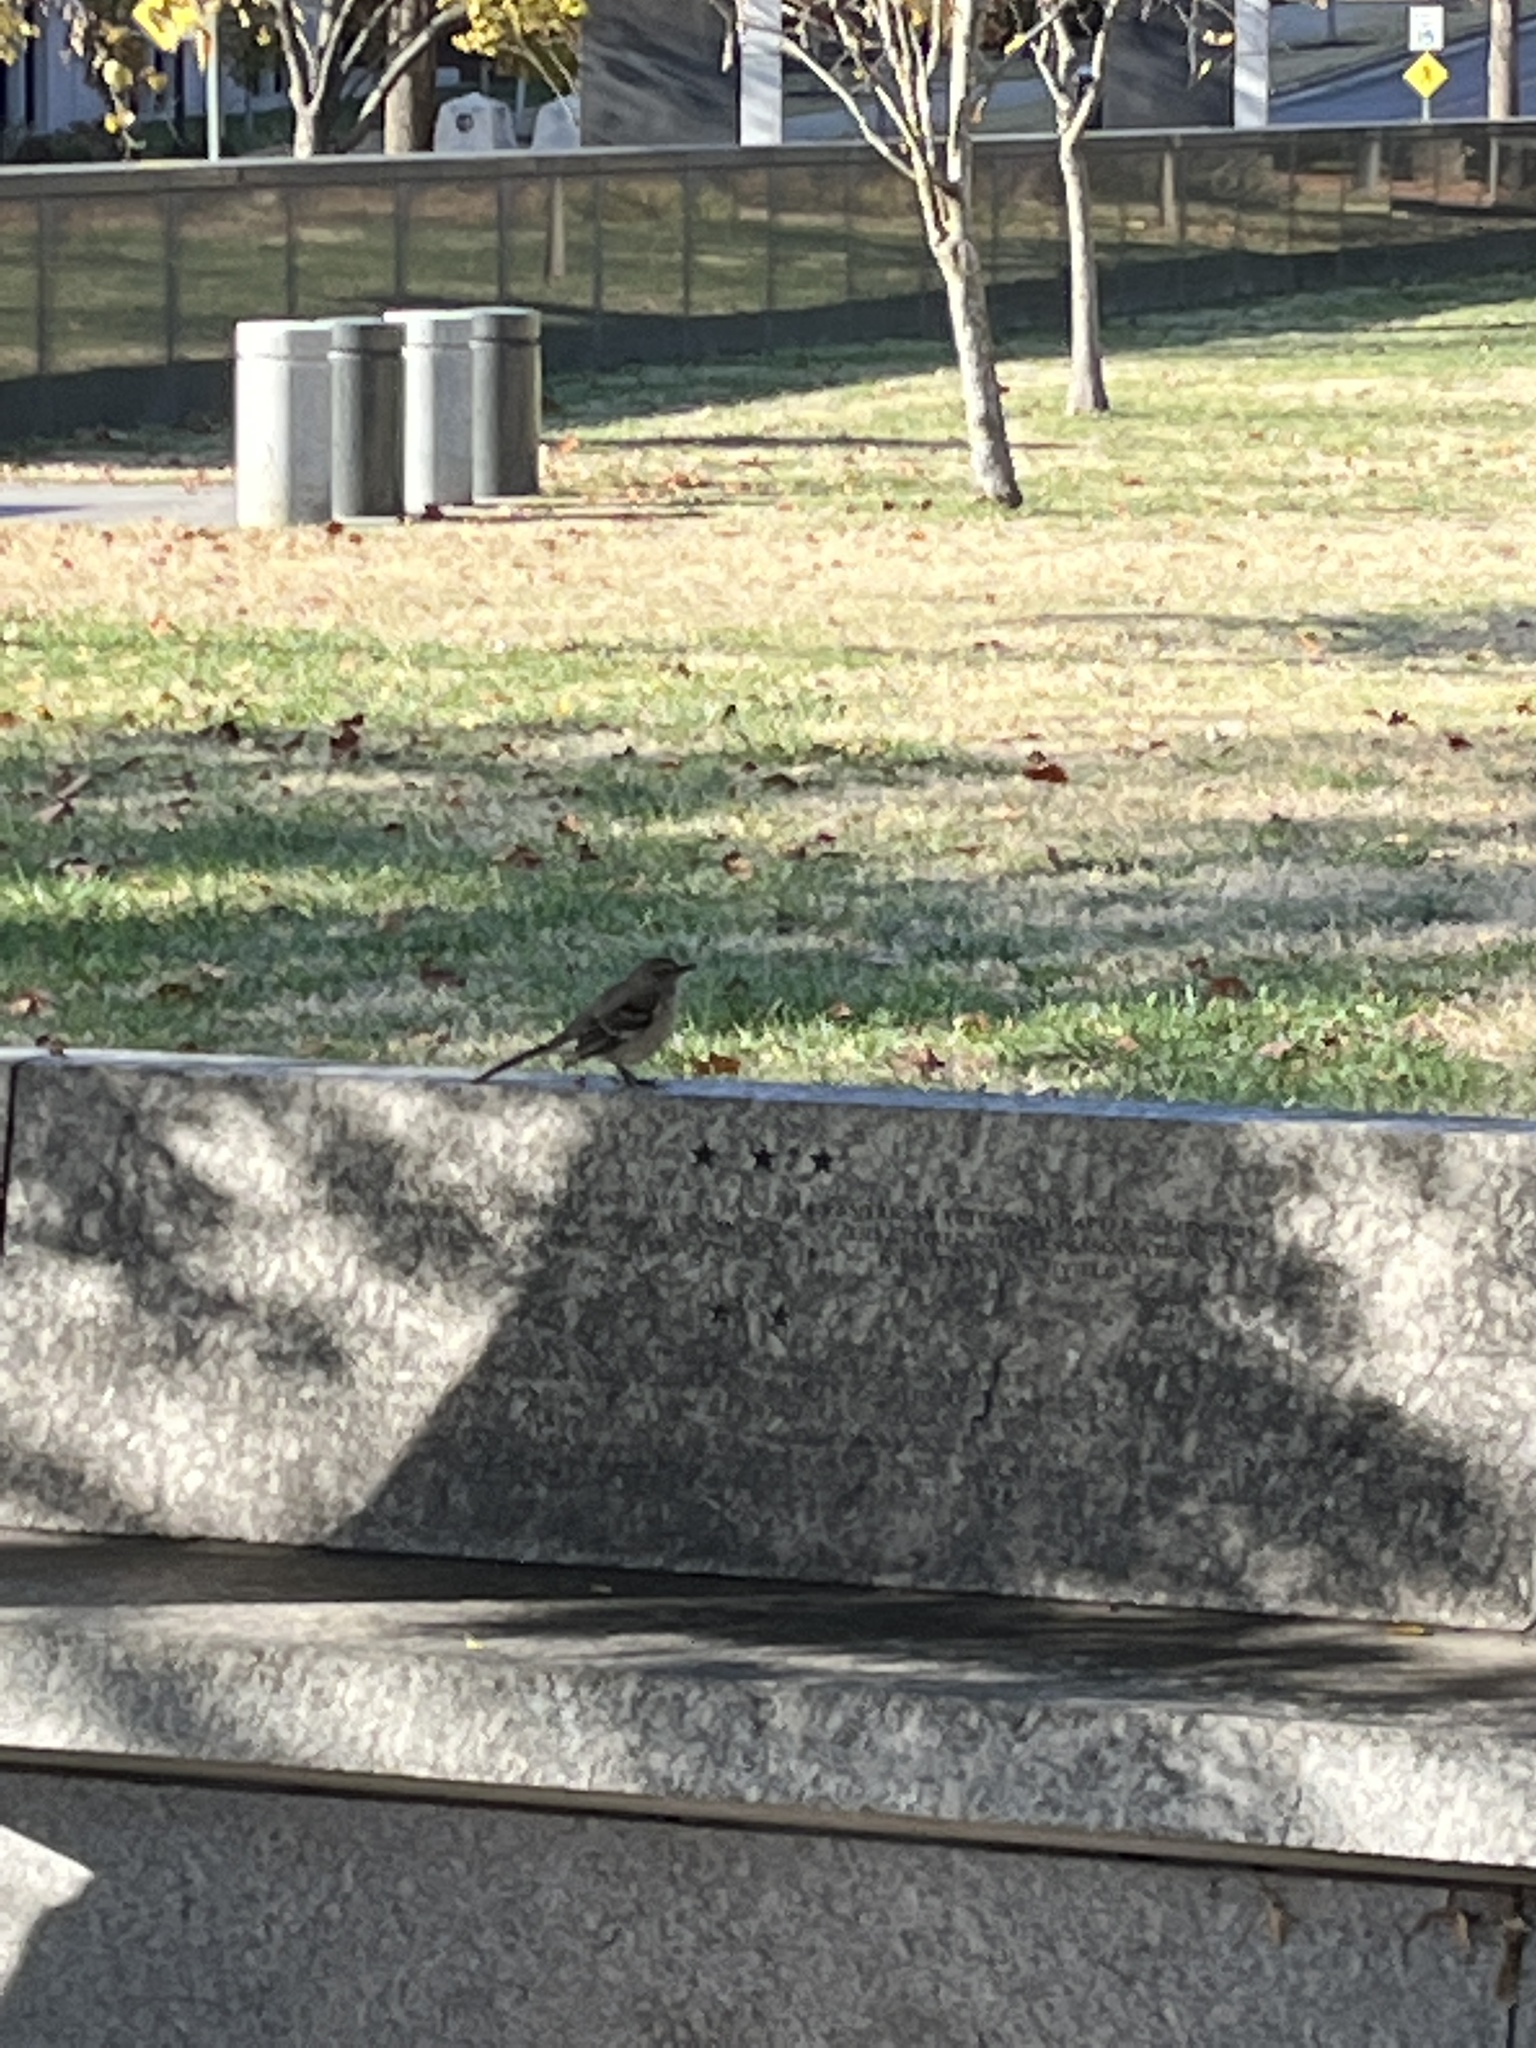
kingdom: Animalia
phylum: Chordata
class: Aves
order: Passeriformes
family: Mimidae
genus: Mimus
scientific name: Mimus polyglottos
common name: Northern mockingbird
